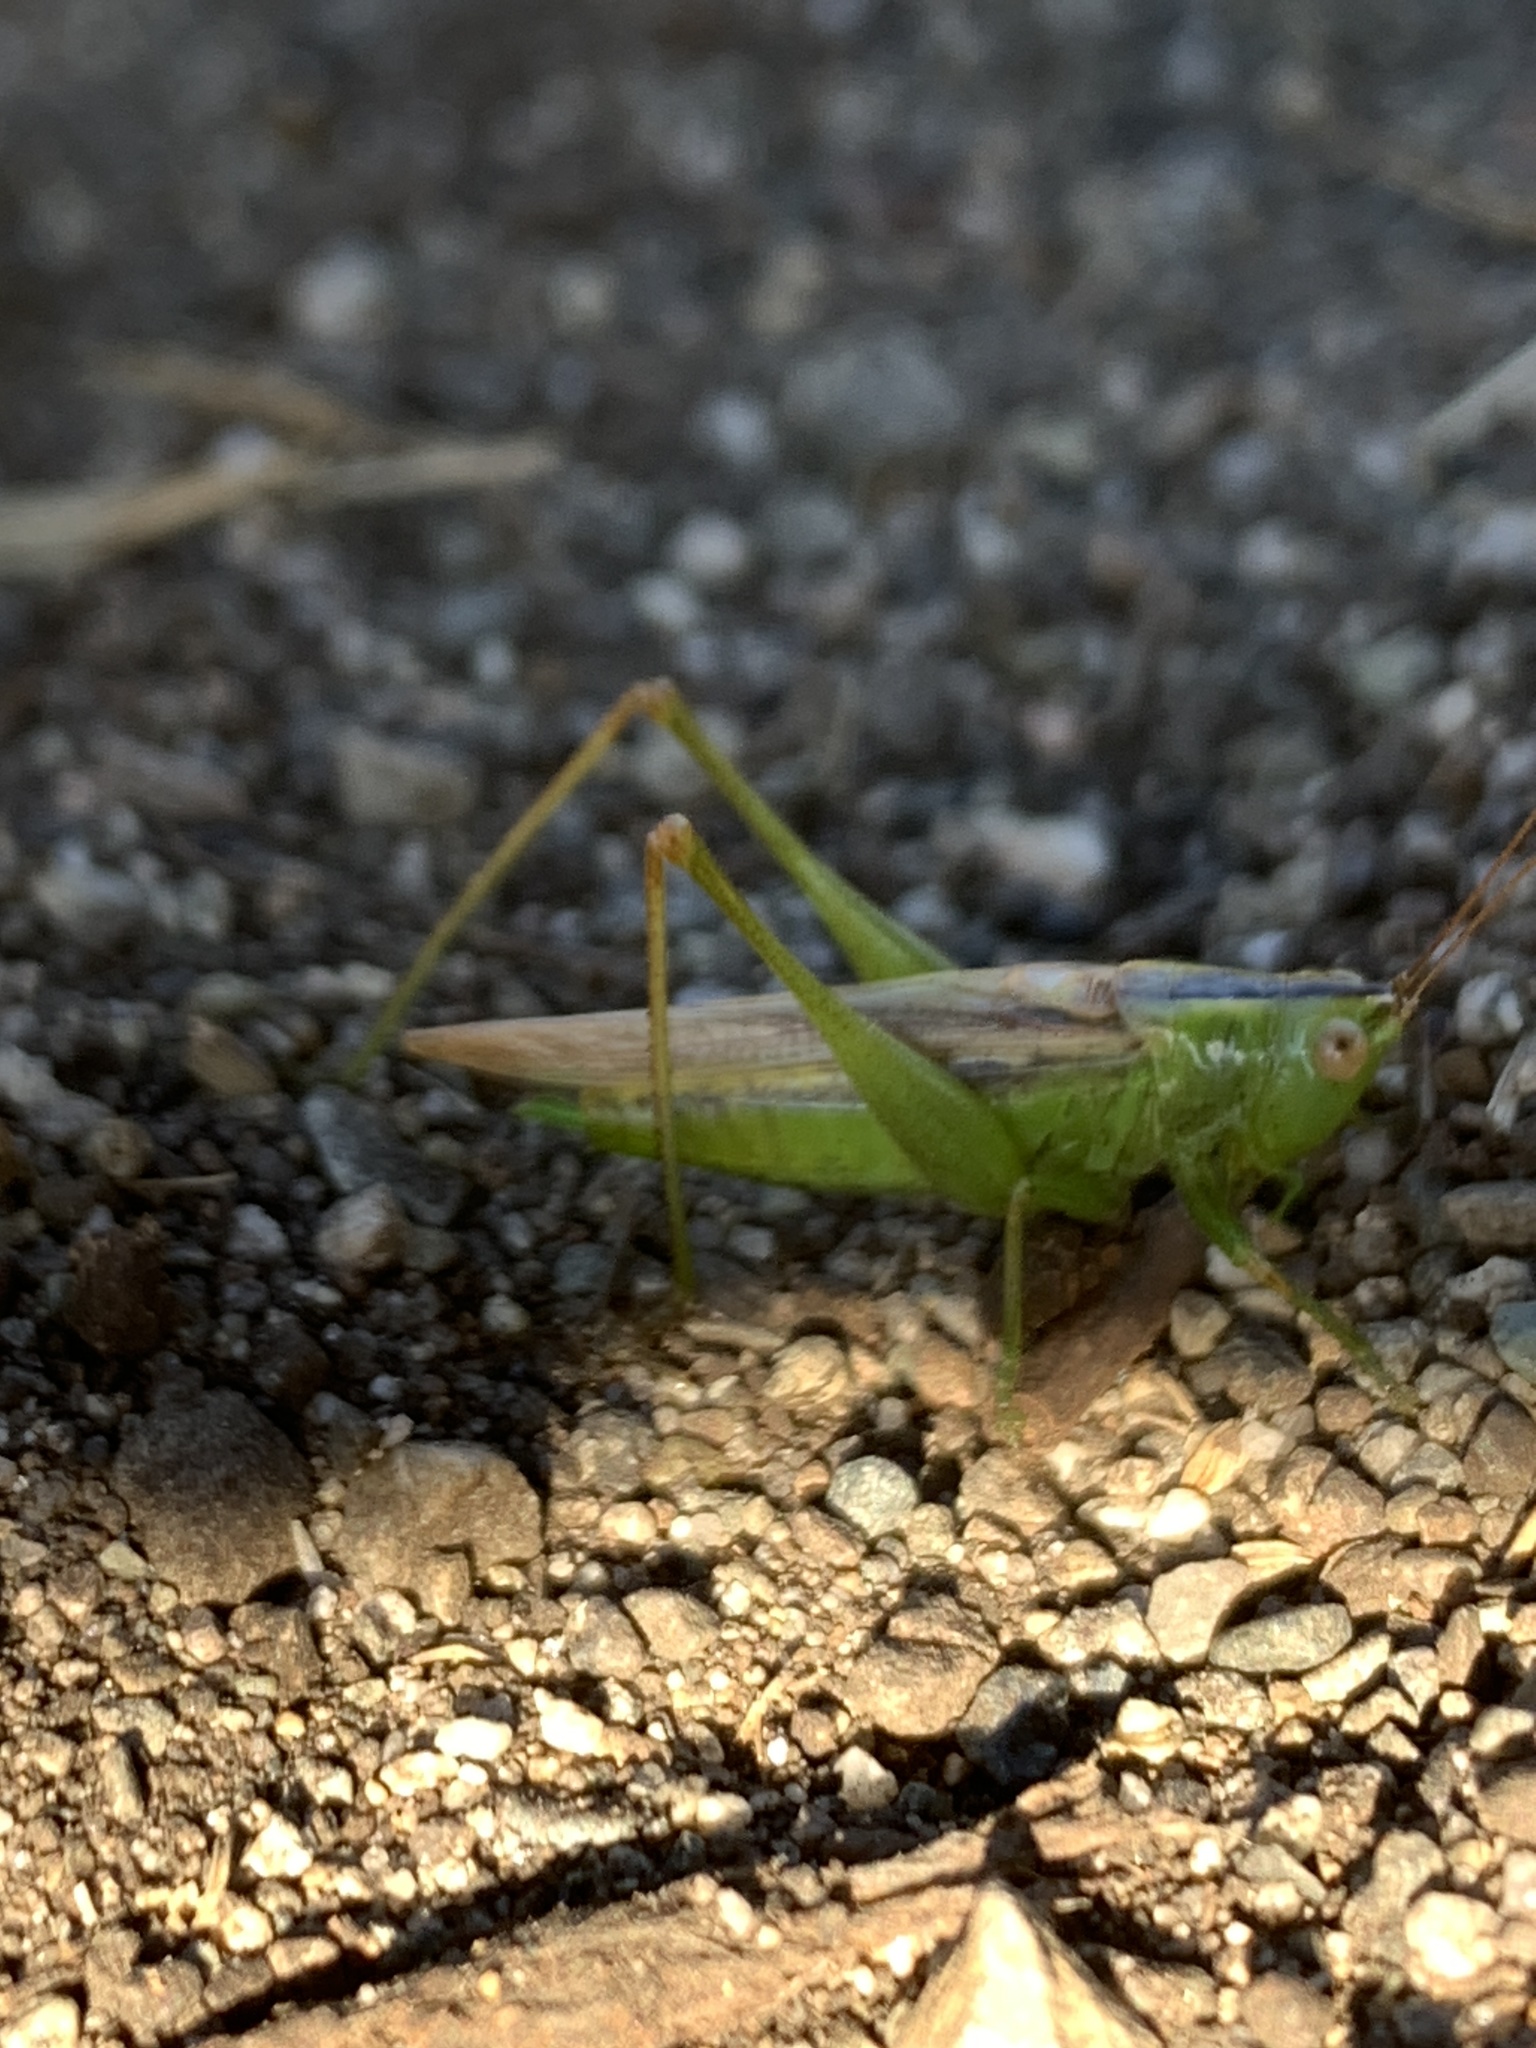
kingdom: Animalia
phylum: Arthropoda
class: Insecta
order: Orthoptera
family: Tettigoniidae
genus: Conocephalus
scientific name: Conocephalus fasciatus
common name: Slender meadow katydid
